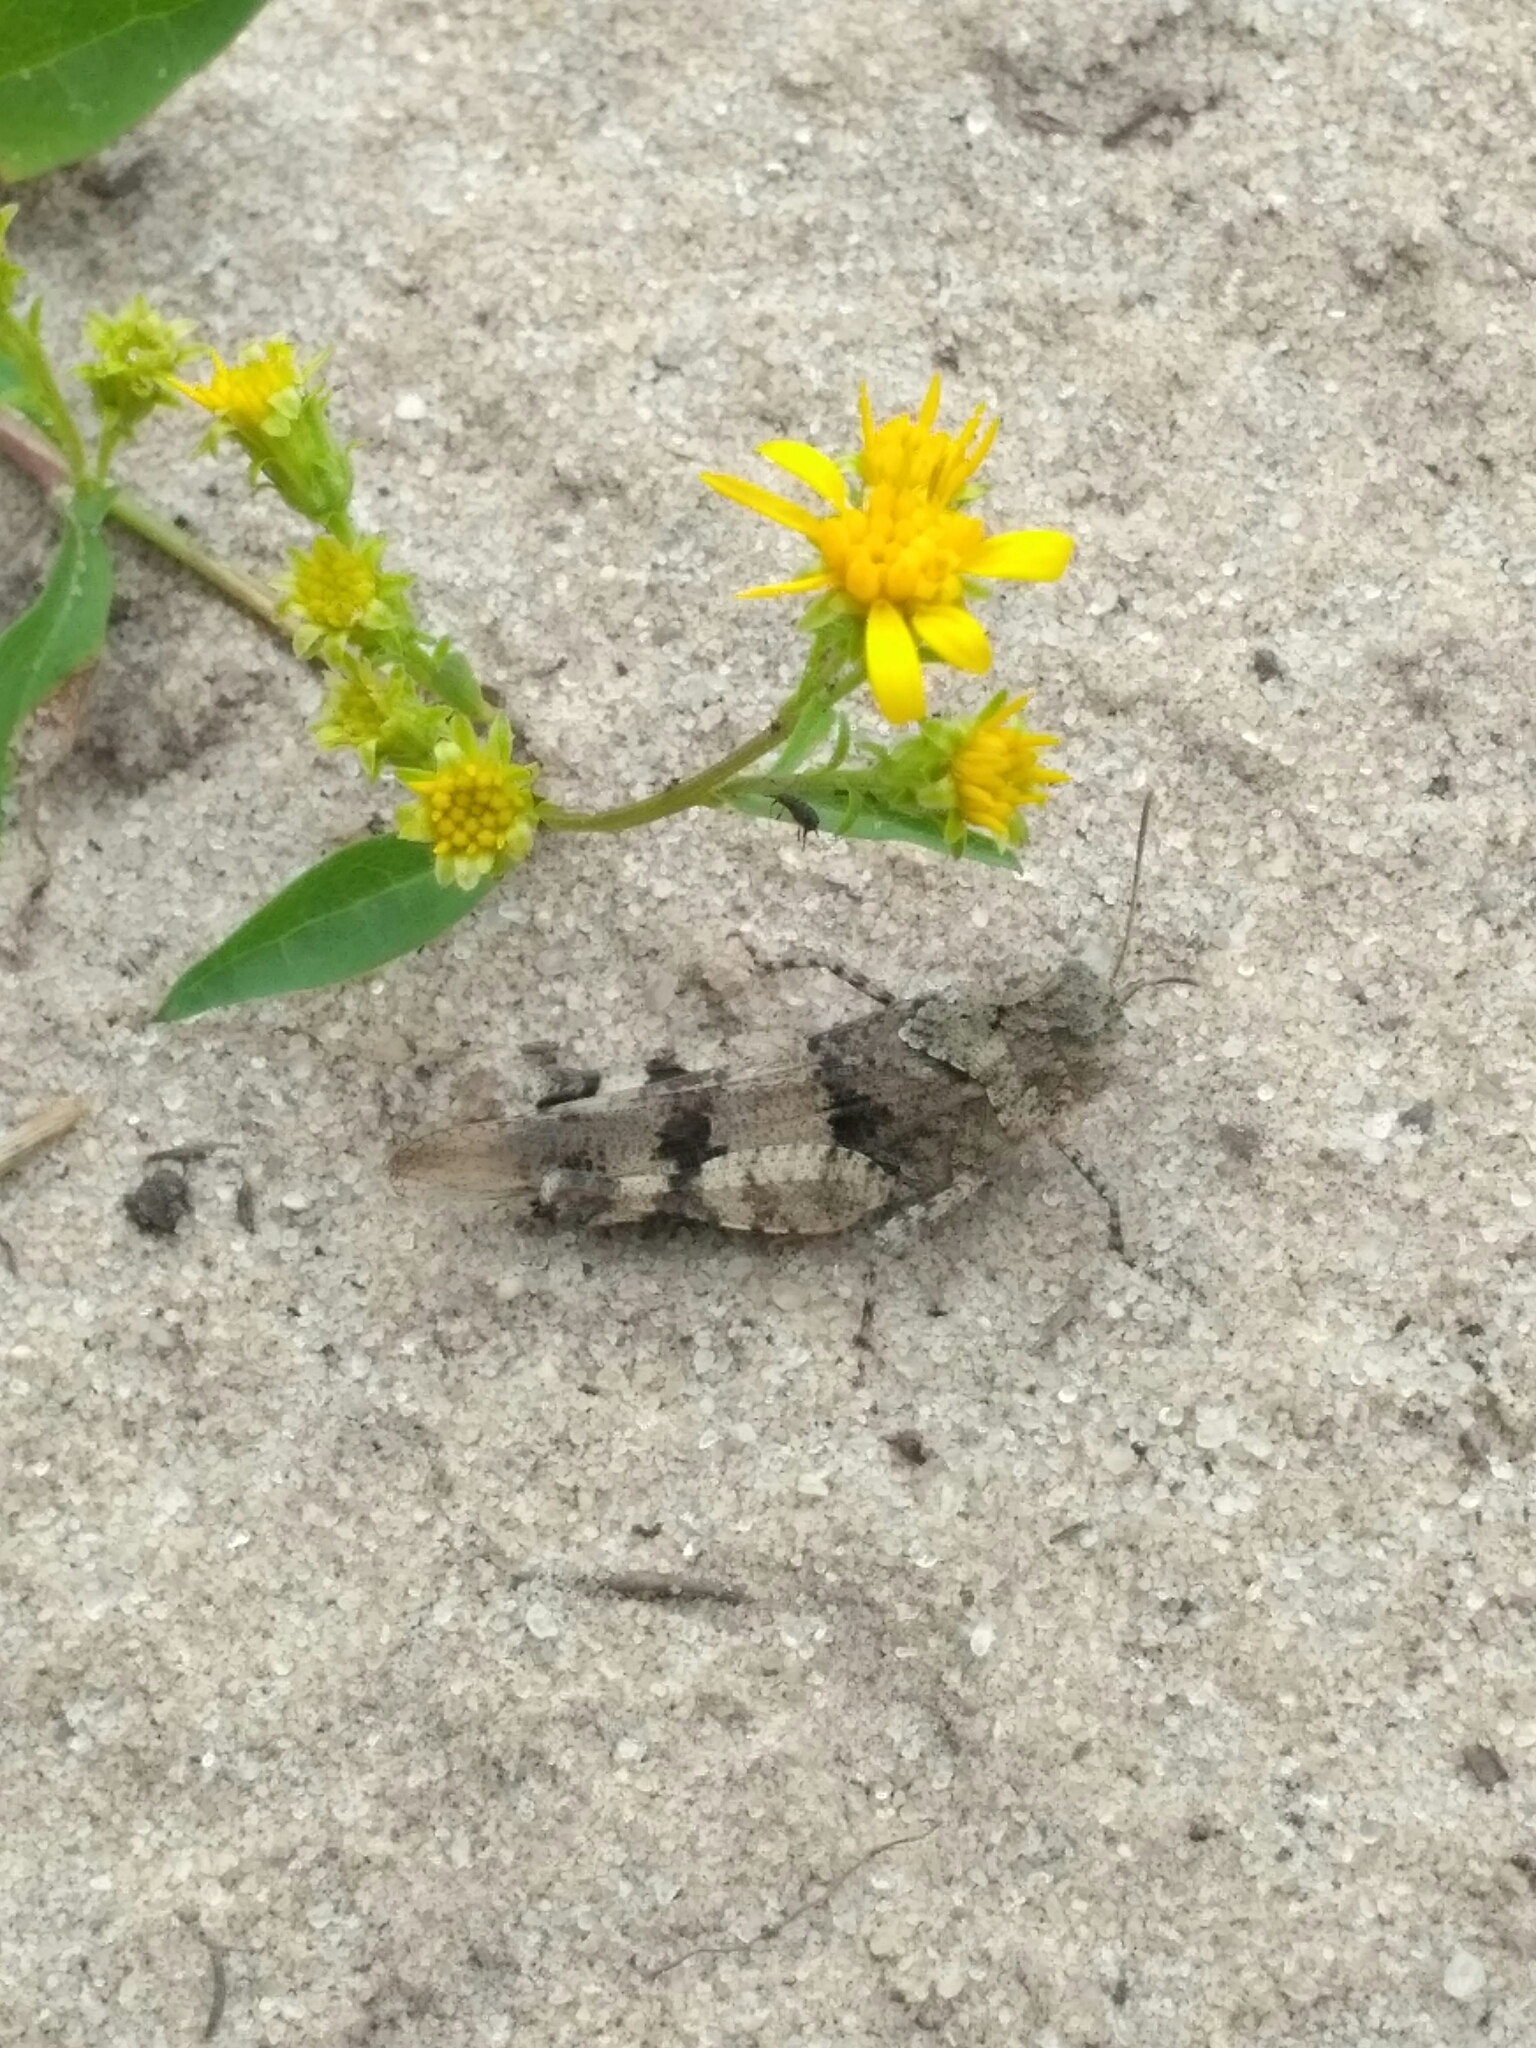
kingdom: Animalia
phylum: Arthropoda
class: Insecta
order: Orthoptera
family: Acrididae
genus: Oedipoda
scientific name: Oedipoda caerulescens
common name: Blue-winged grasshopper
